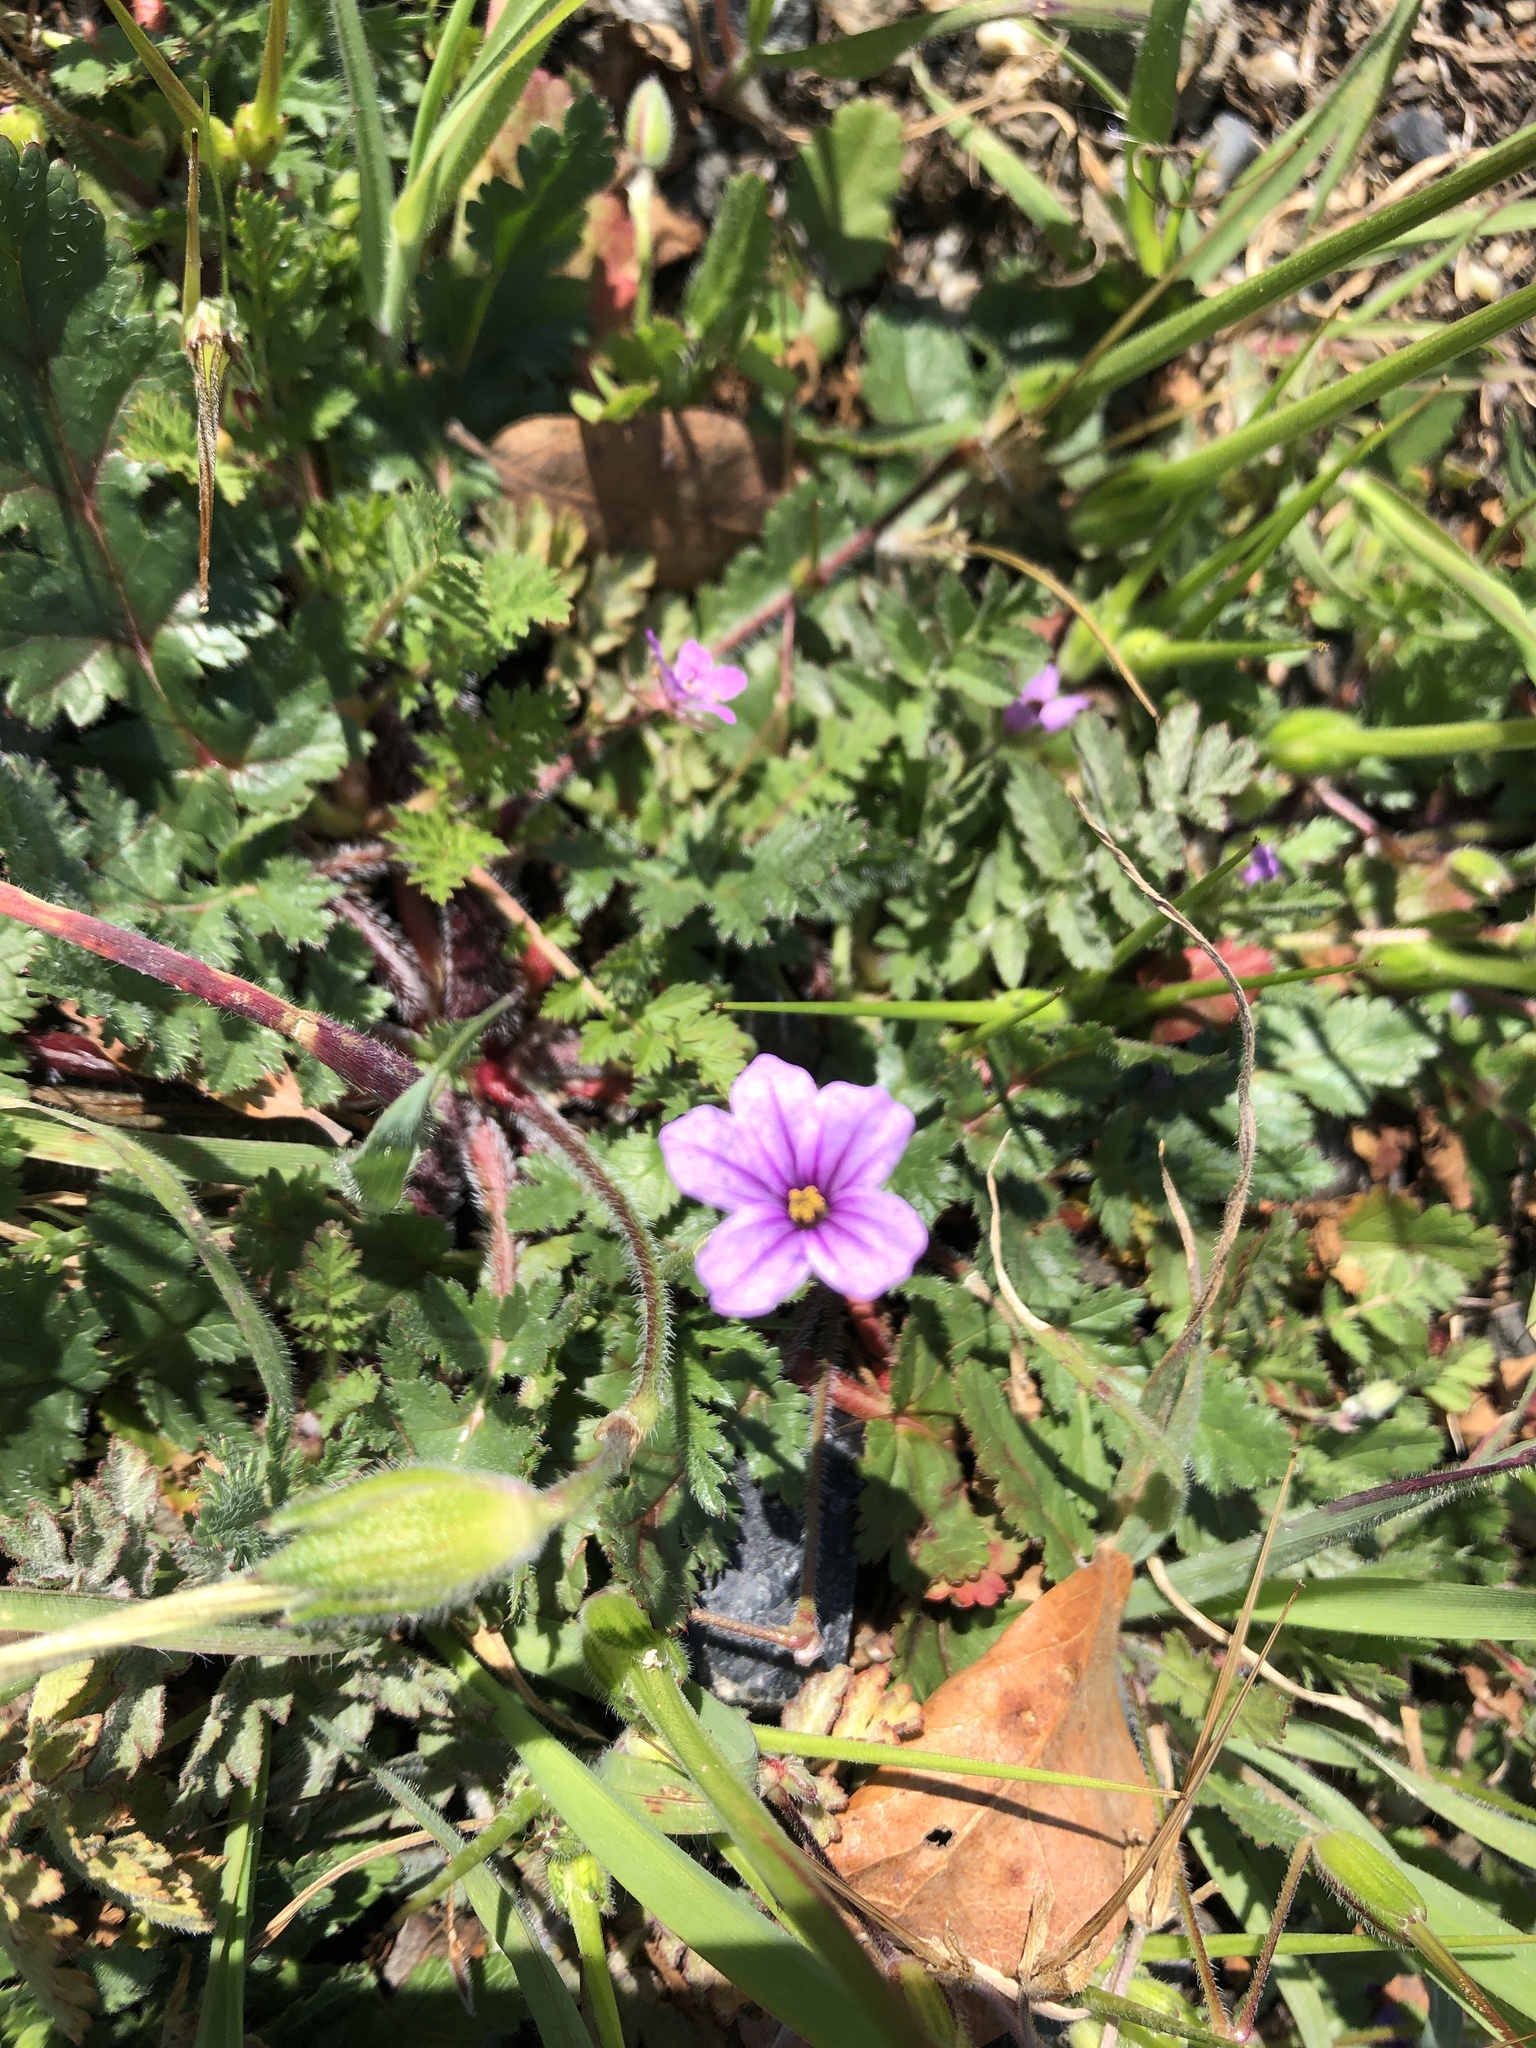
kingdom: Plantae
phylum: Tracheophyta
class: Magnoliopsida
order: Geraniales
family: Geraniaceae
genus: Erodium
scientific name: Erodium botrys
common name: Mediterranean stork's-bill
